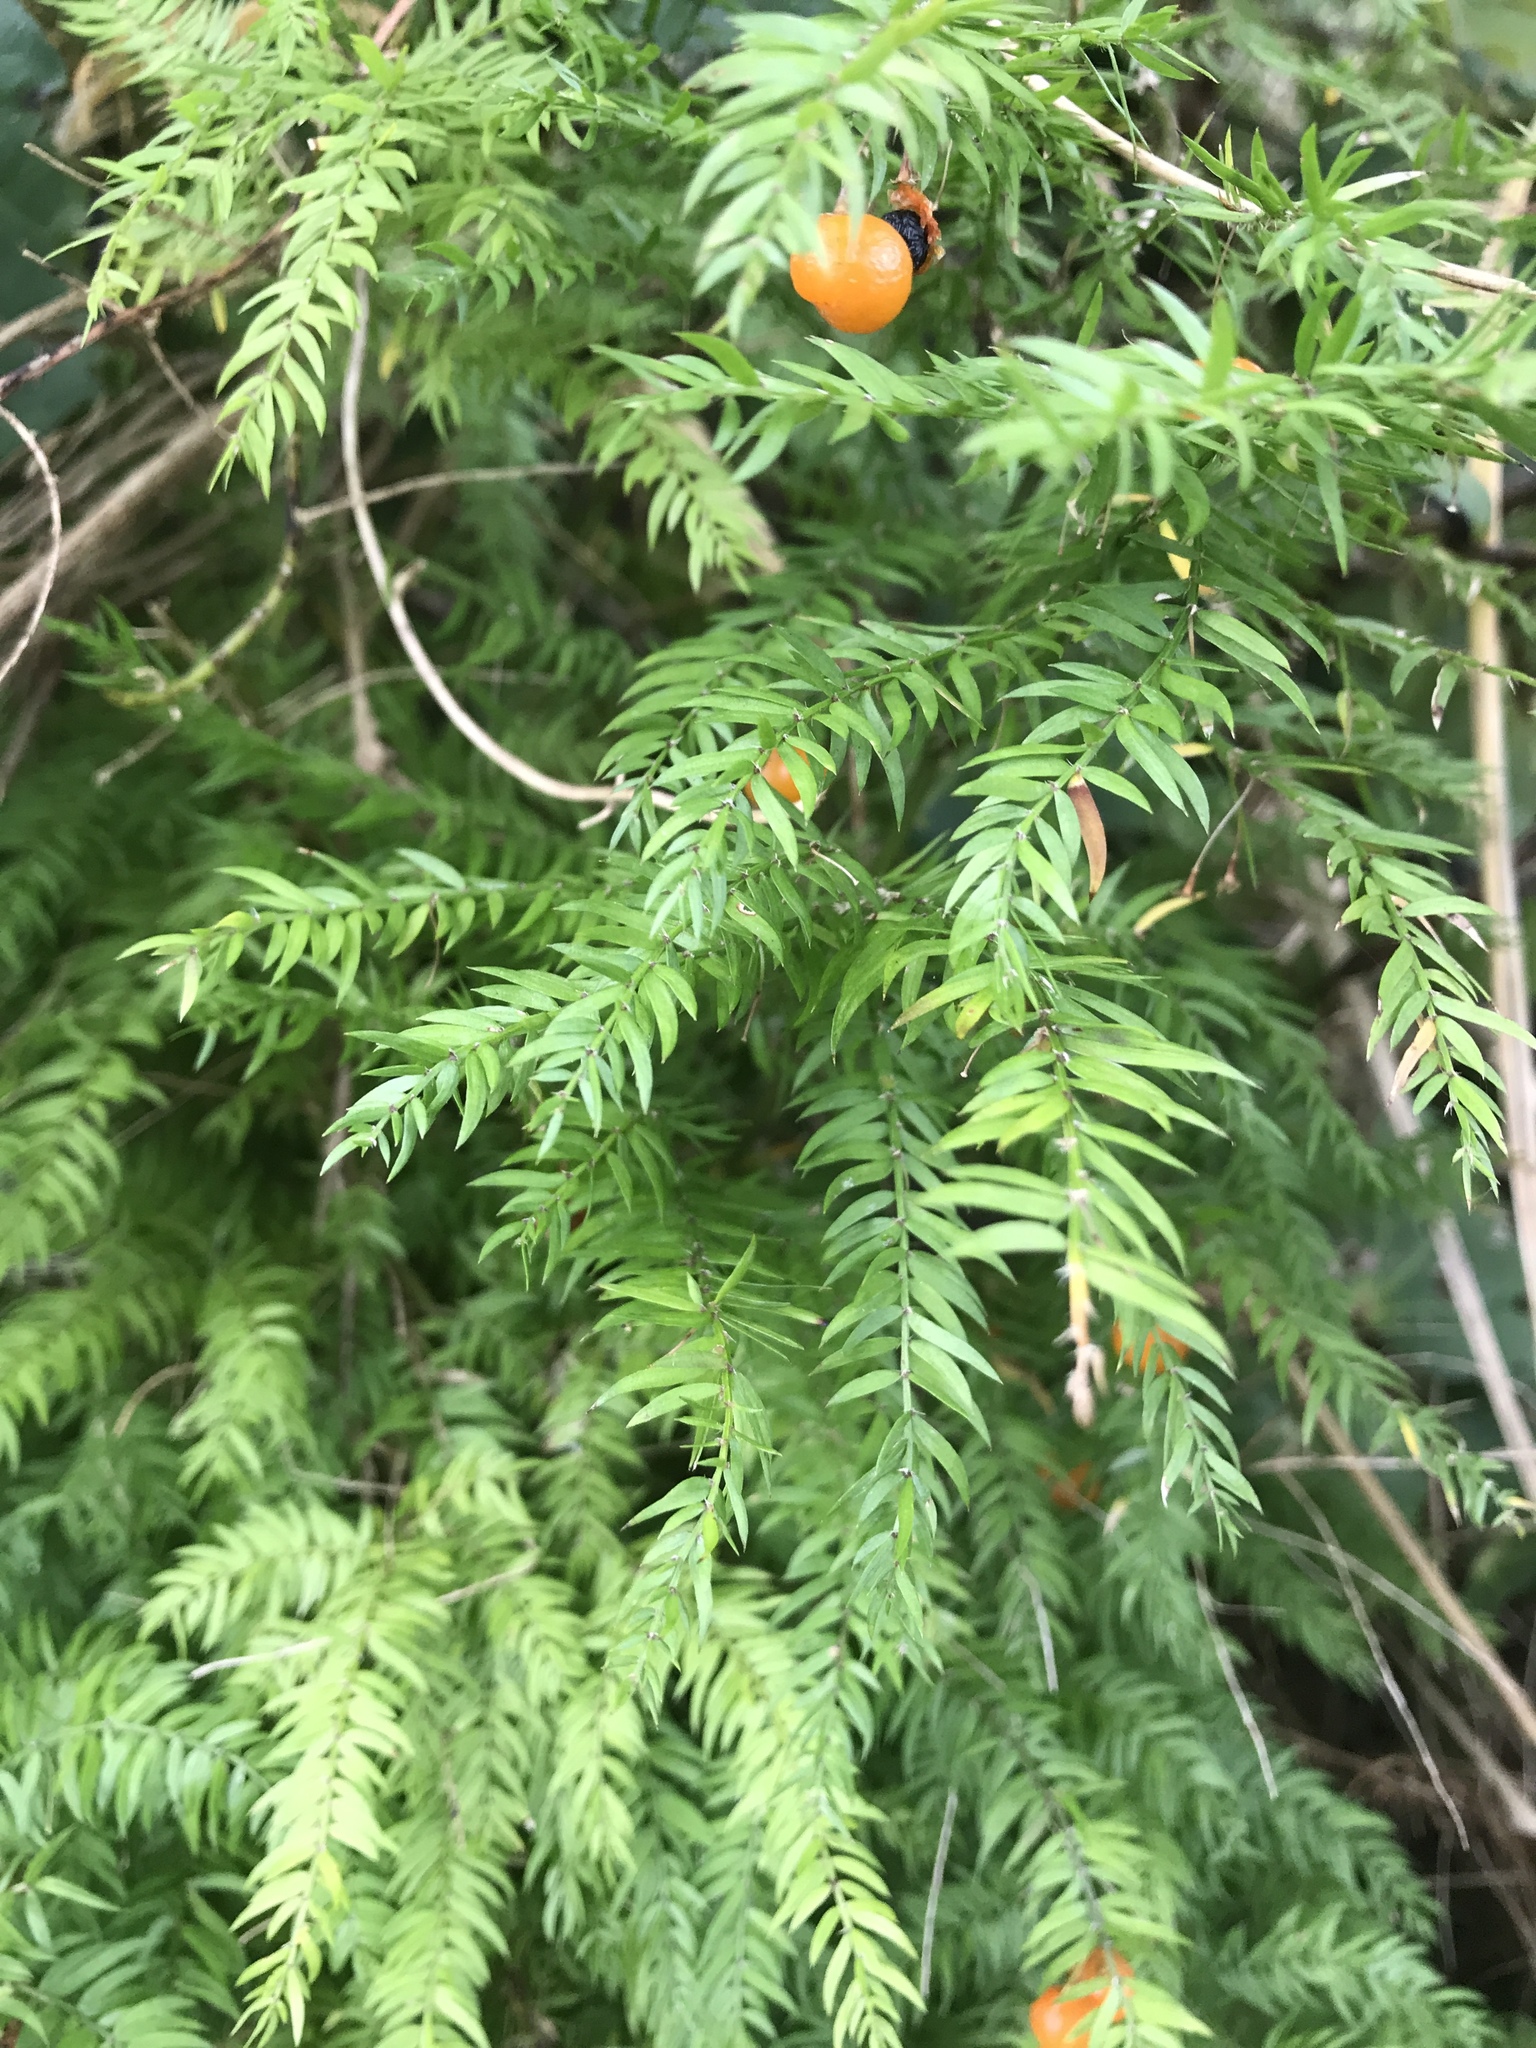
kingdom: Plantae
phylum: Tracheophyta
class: Liliopsida
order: Asparagales
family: Asparagaceae
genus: Asparagus
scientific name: Asparagus scandens
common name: Asparagus-fern
